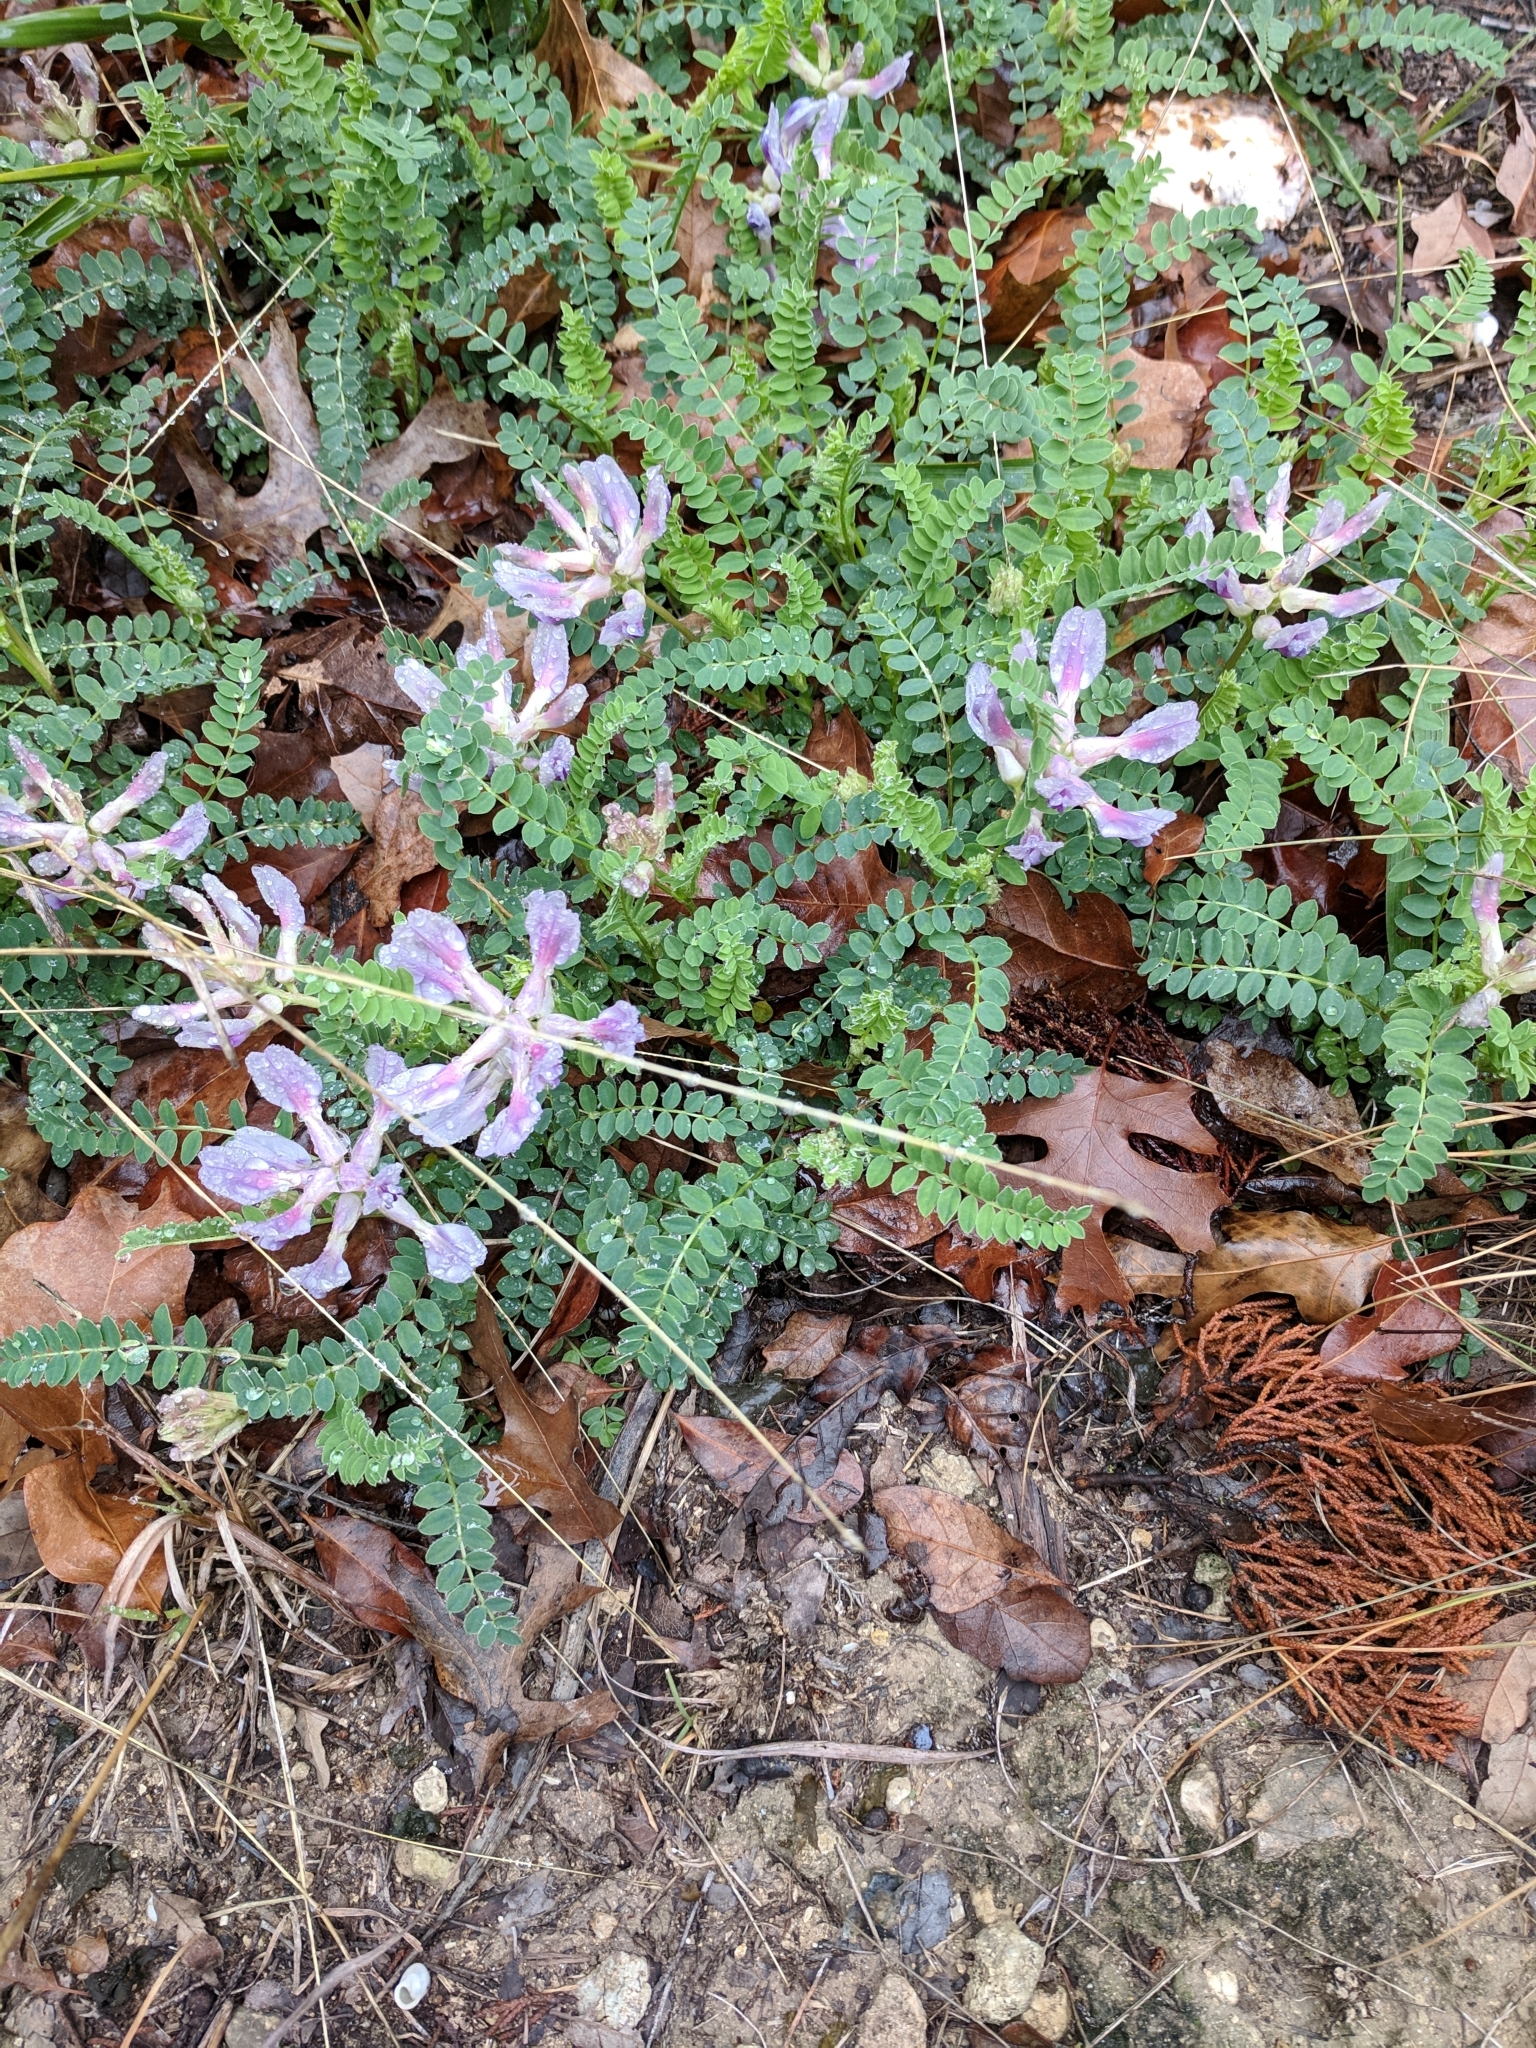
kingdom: Plantae
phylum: Tracheophyta
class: Magnoliopsida
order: Fabales
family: Fabaceae
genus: Astragalus
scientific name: Astragalus crassicarpus
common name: Ground-plum milk-vetch
